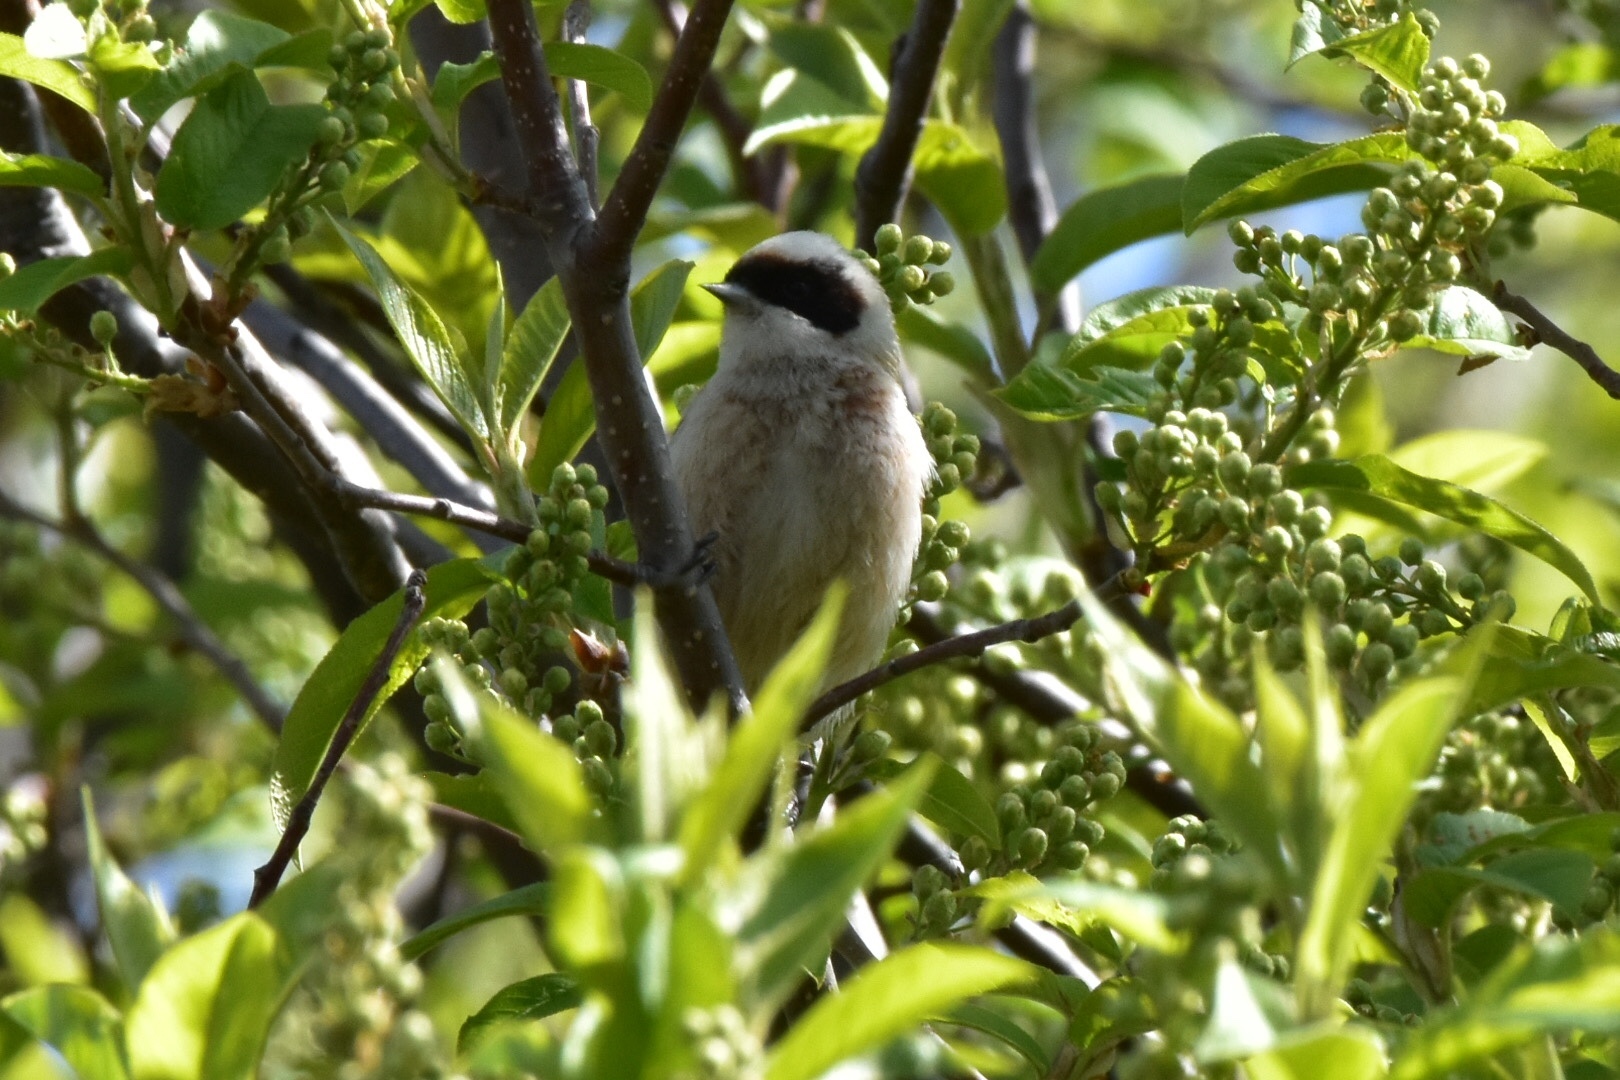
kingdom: Animalia
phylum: Chordata
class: Aves
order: Passeriformes
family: Remizidae
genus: Remiz
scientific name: Remiz pendulinus
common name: Eurasian penduline tit
